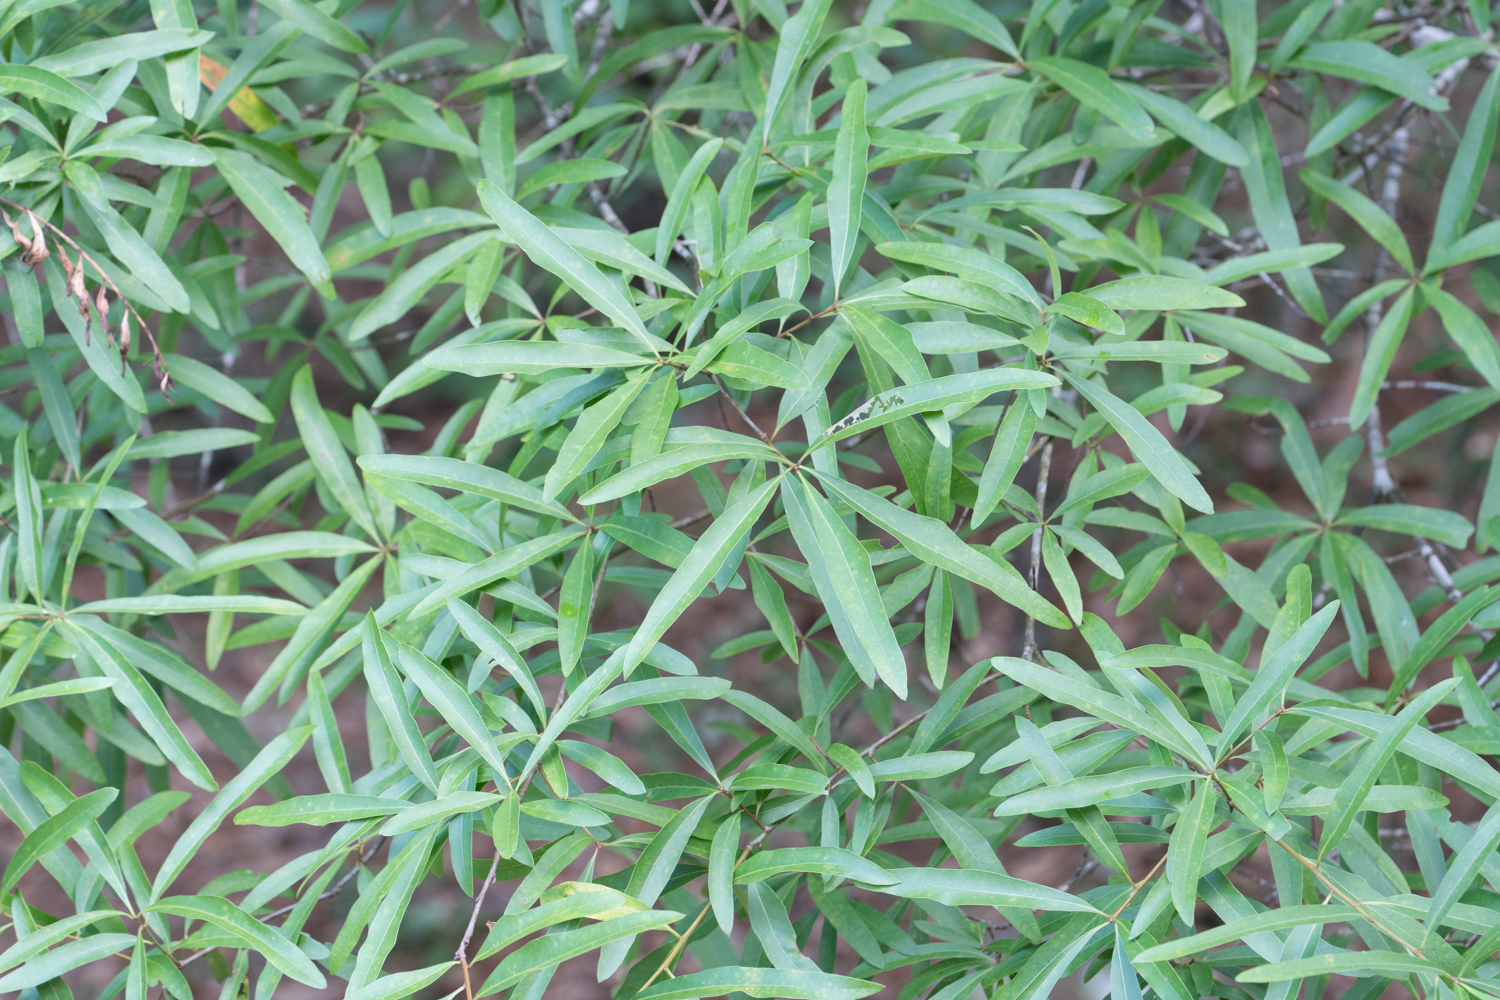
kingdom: Plantae
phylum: Tracheophyta
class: Magnoliopsida
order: Fagales
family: Fagaceae
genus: Quercus
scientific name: Quercus phellos
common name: Willow oak
